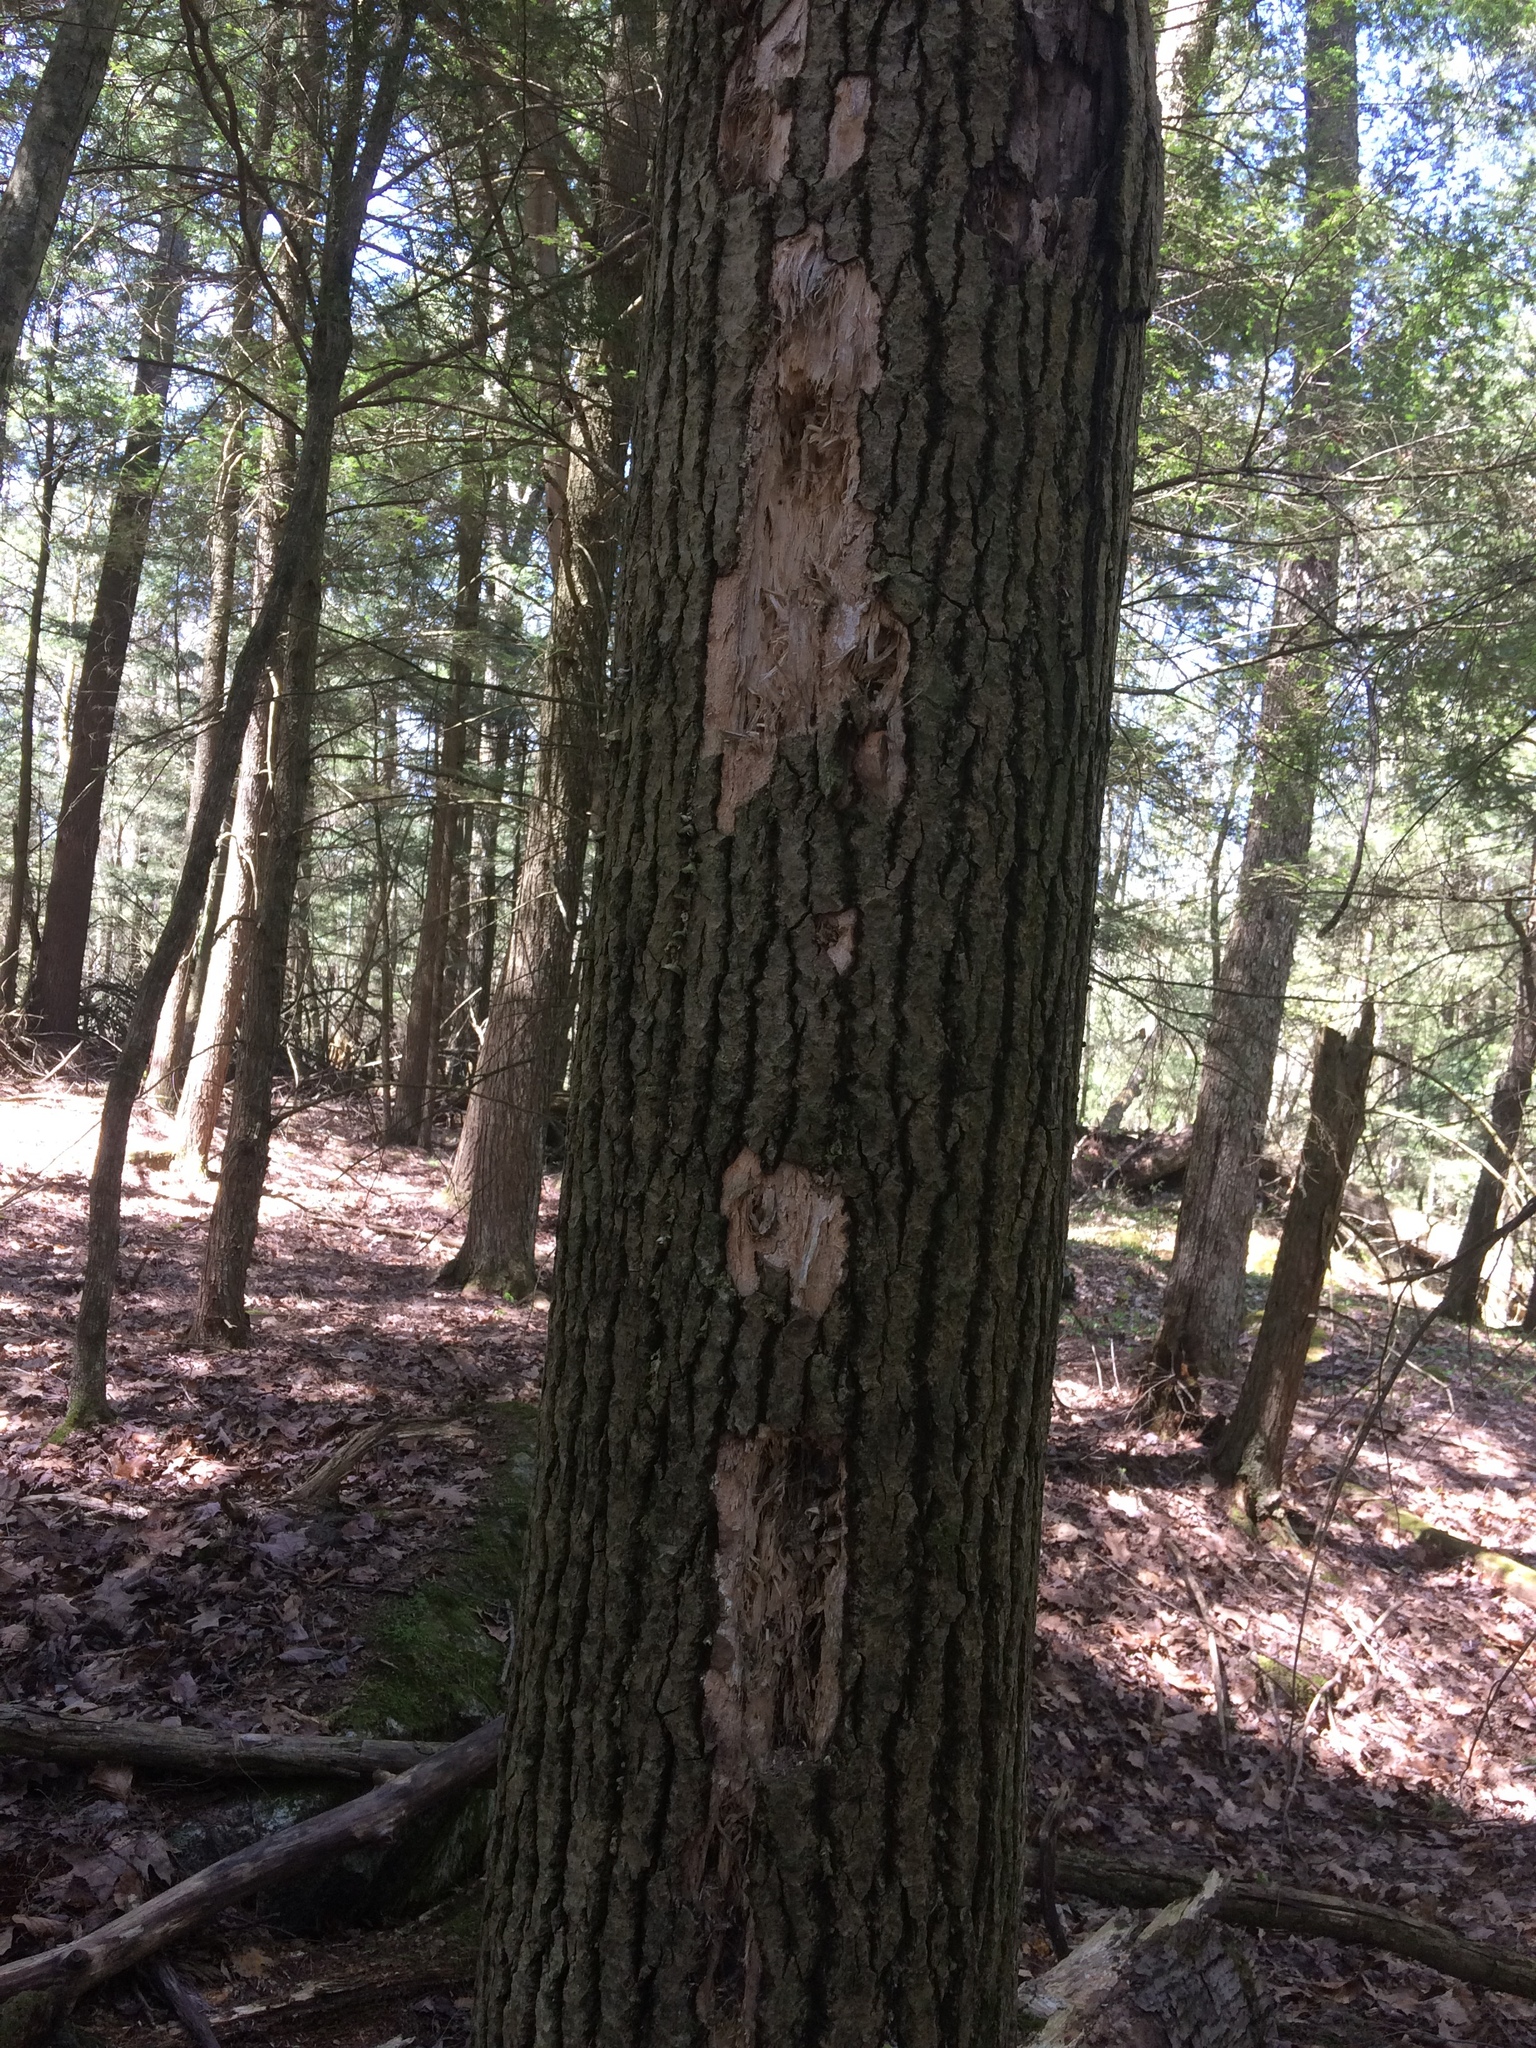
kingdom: Animalia
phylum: Chordata
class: Aves
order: Piciformes
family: Picidae
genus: Dryocopus
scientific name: Dryocopus pileatus
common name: Pileated woodpecker
